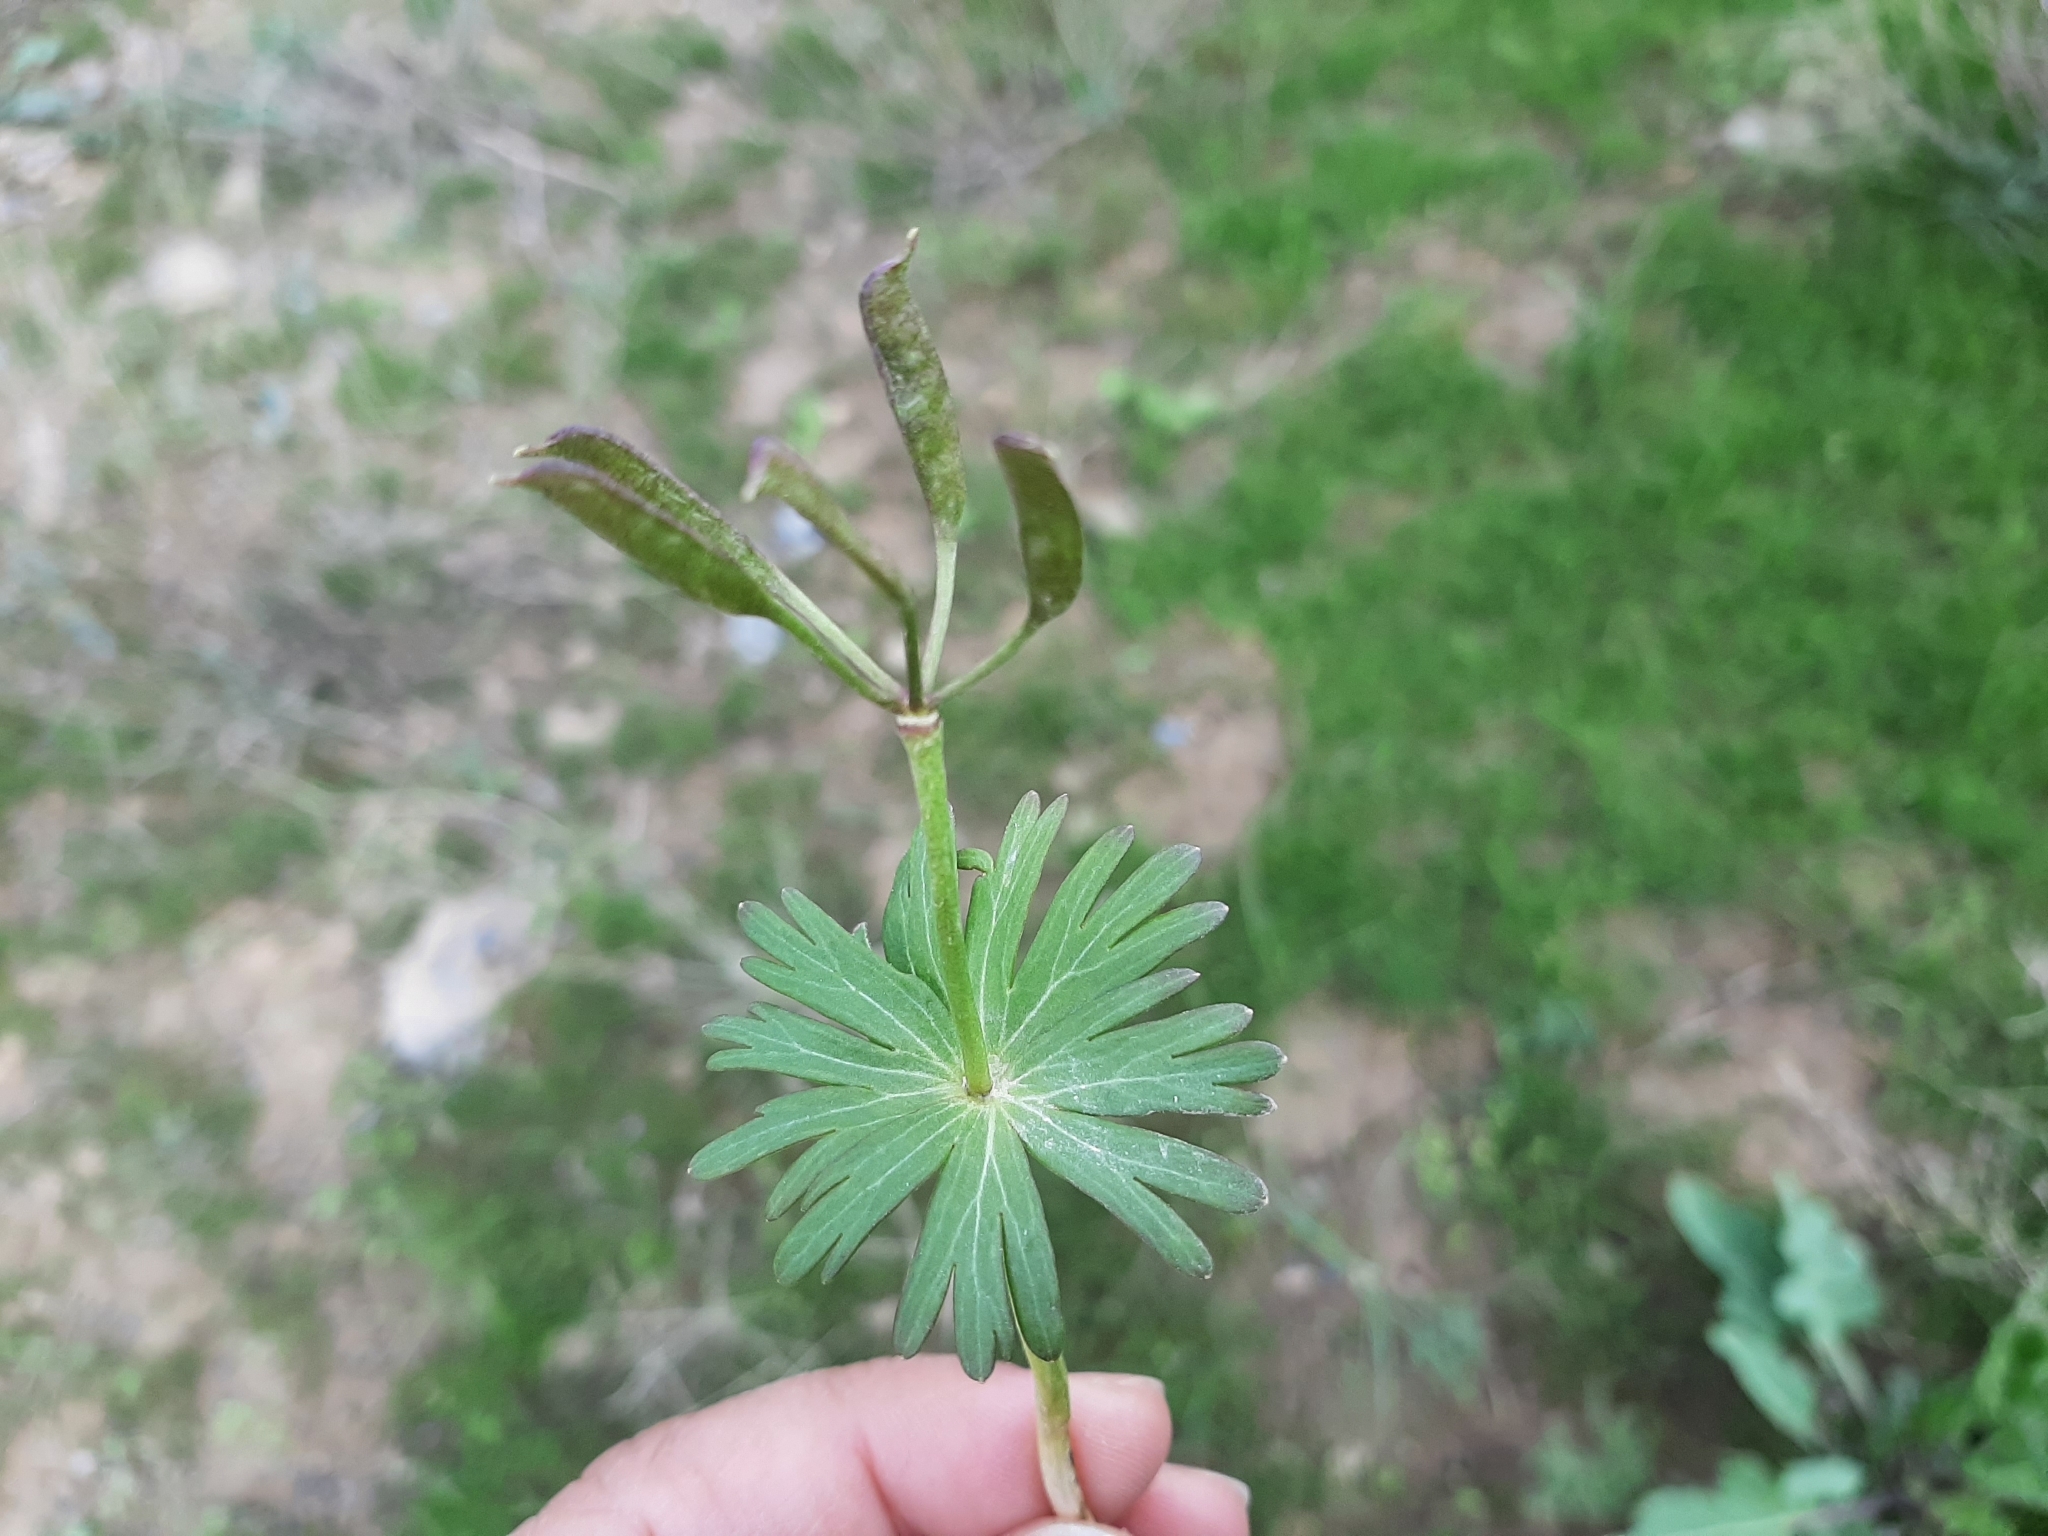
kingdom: Plantae
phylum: Tracheophyta
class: Magnoliopsida
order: Ranunculales
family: Ranunculaceae
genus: Eranthis
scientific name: Eranthis longistipitata
